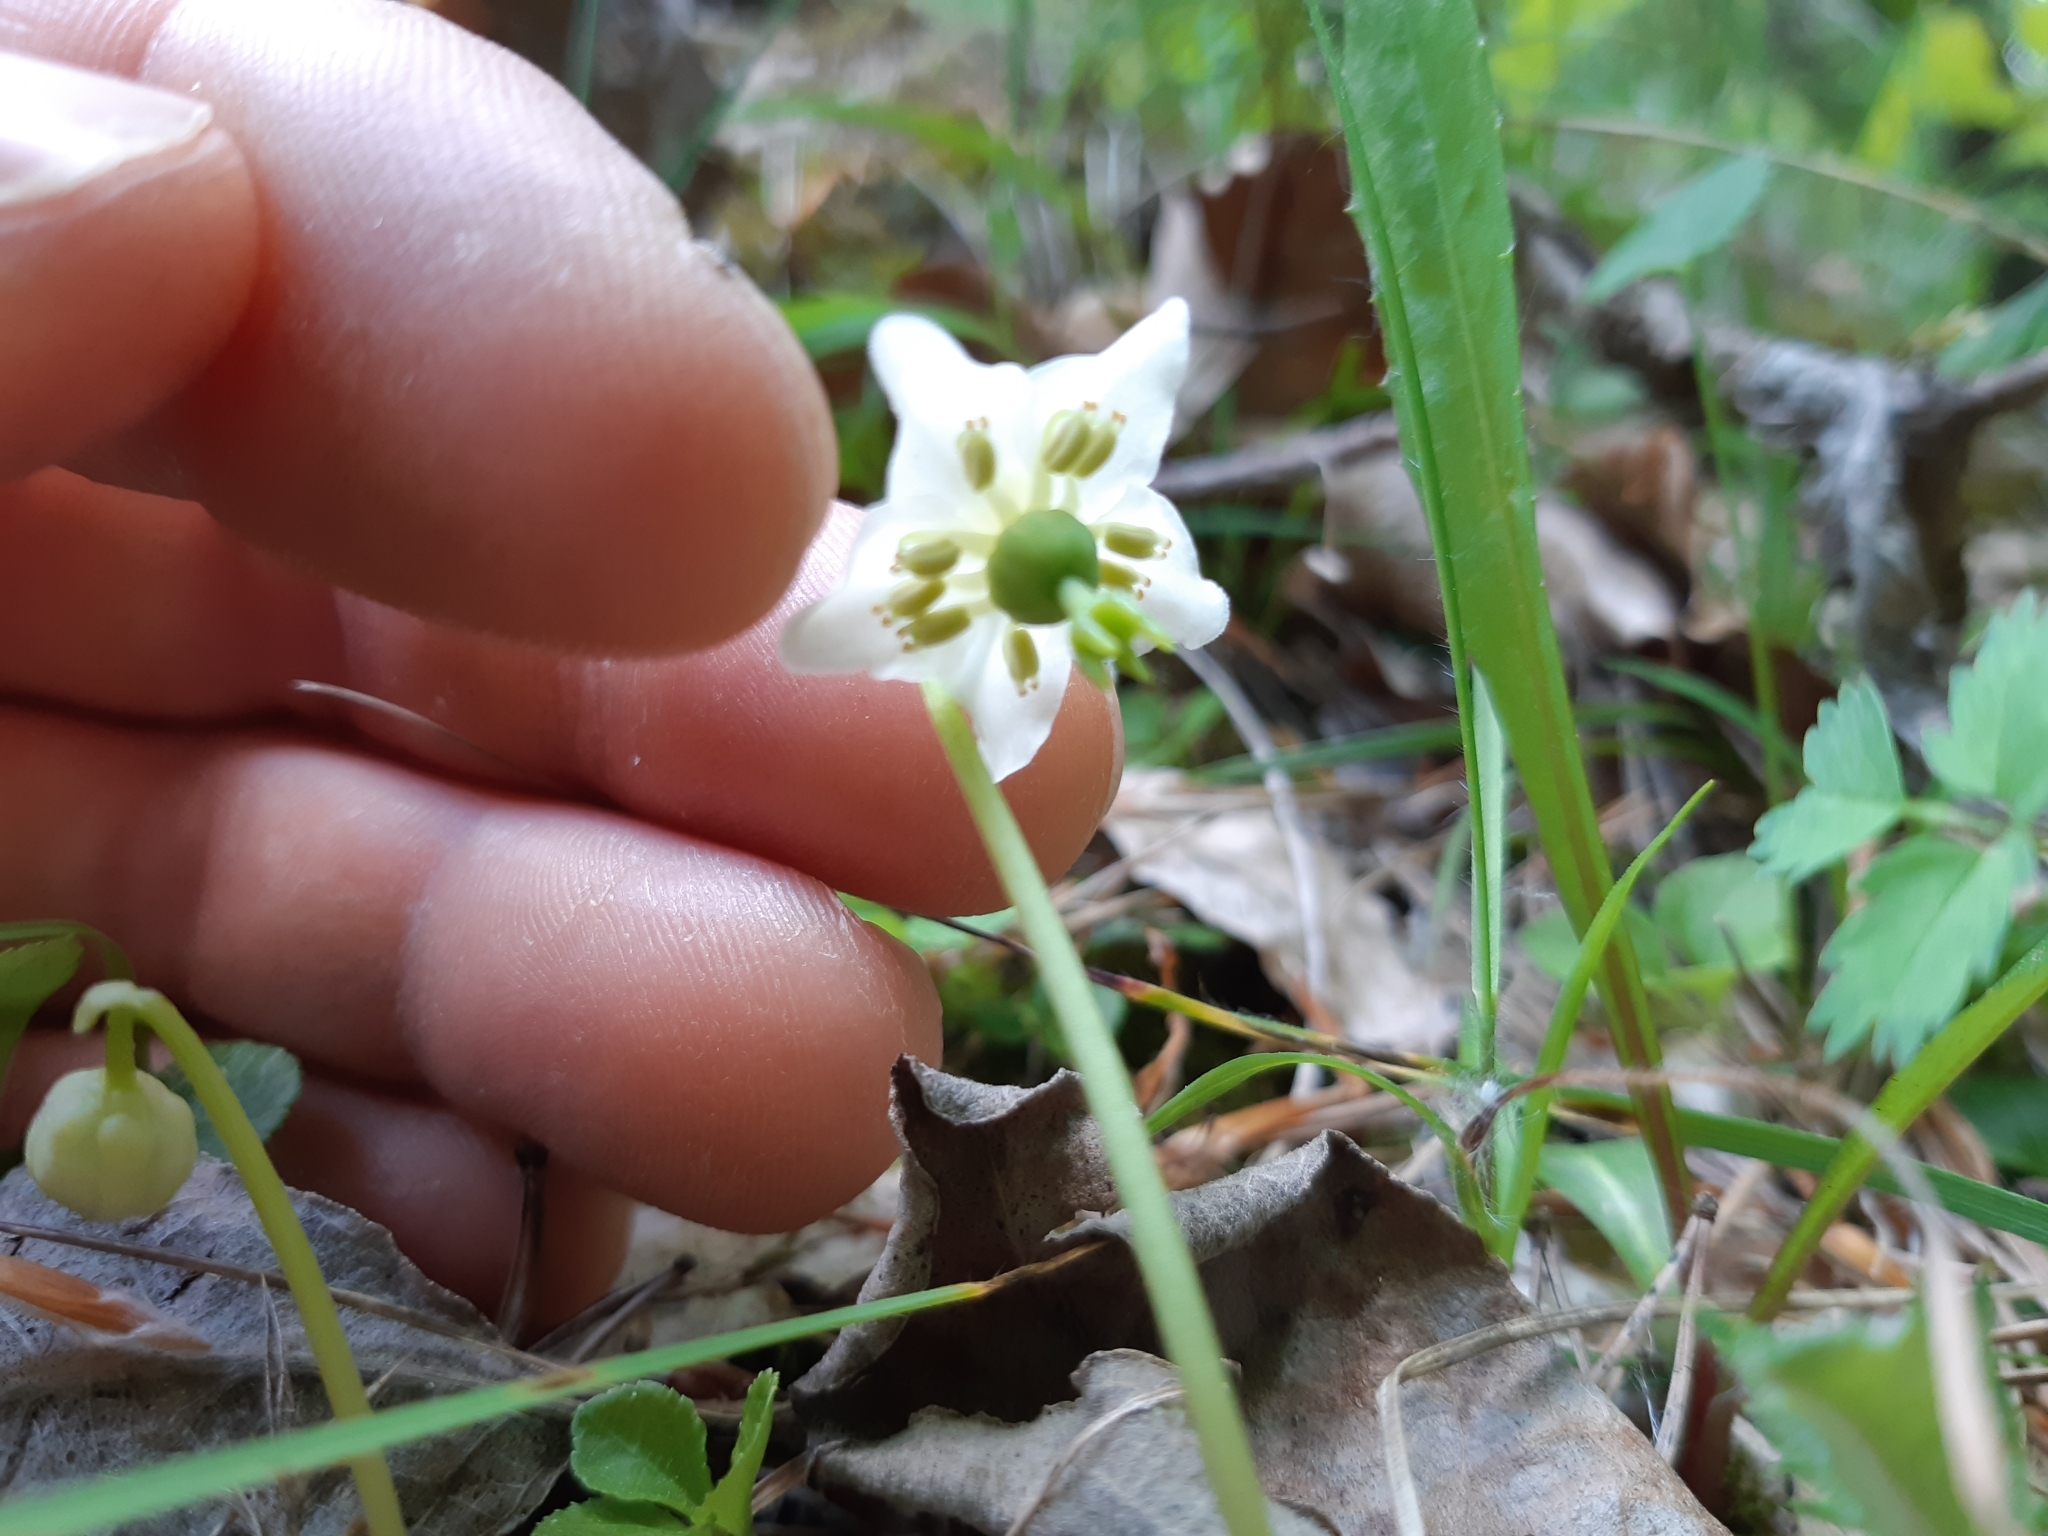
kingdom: Plantae
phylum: Tracheophyta
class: Magnoliopsida
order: Ericales
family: Ericaceae
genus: Moneses
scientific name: Moneses uniflora
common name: One-flowered wintergreen
